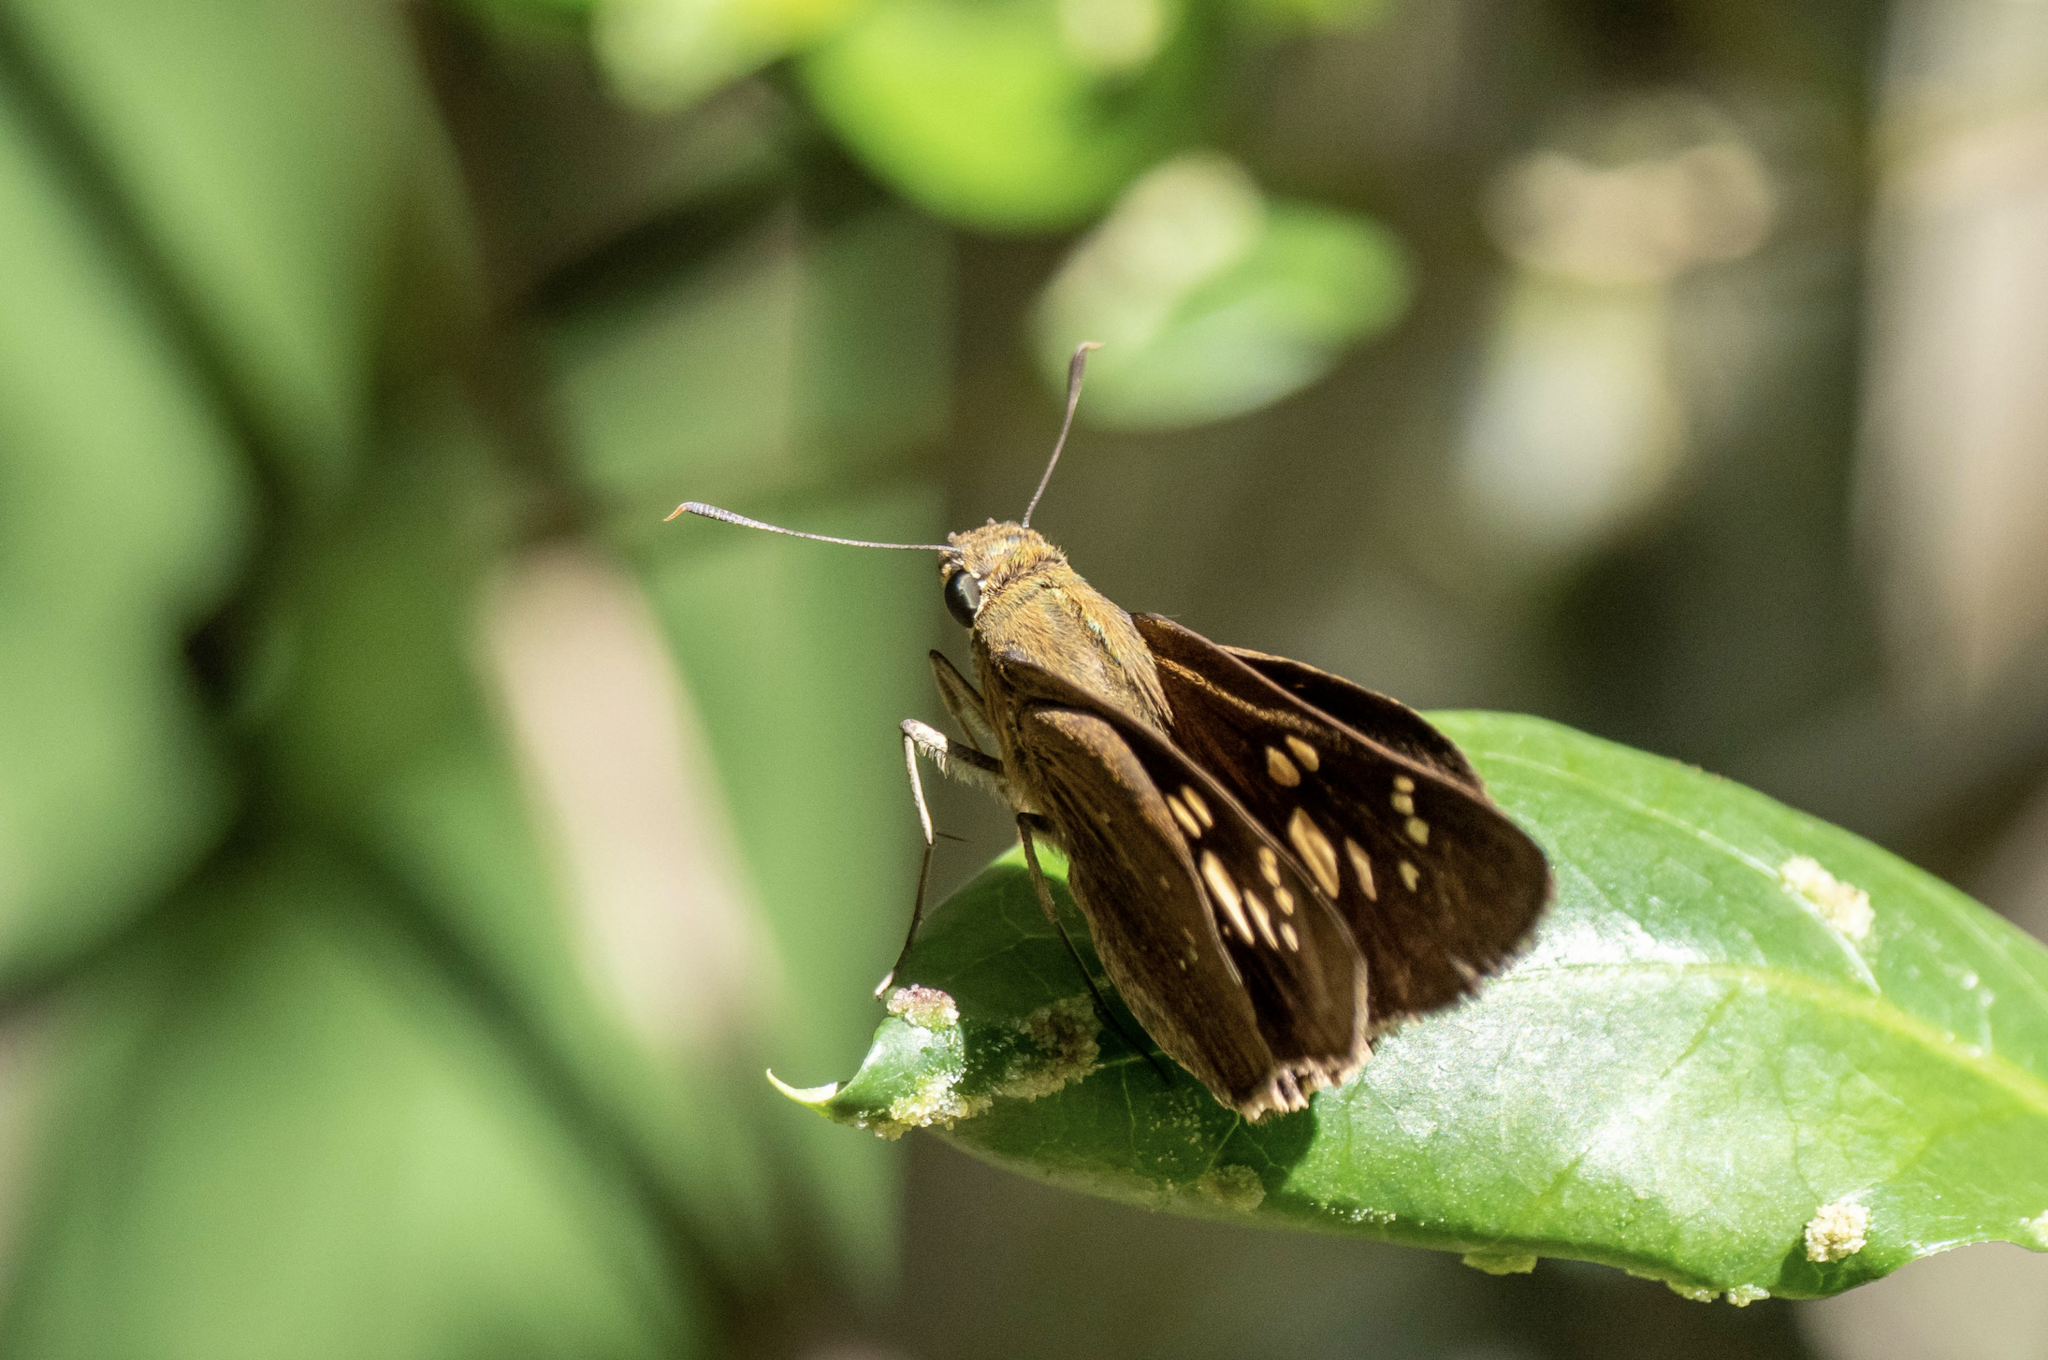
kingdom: Animalia
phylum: Arthropoda
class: Insecta
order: Lepidoptera
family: Hesperiidae
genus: Pelopidas
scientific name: Pelopidas conjuncta
